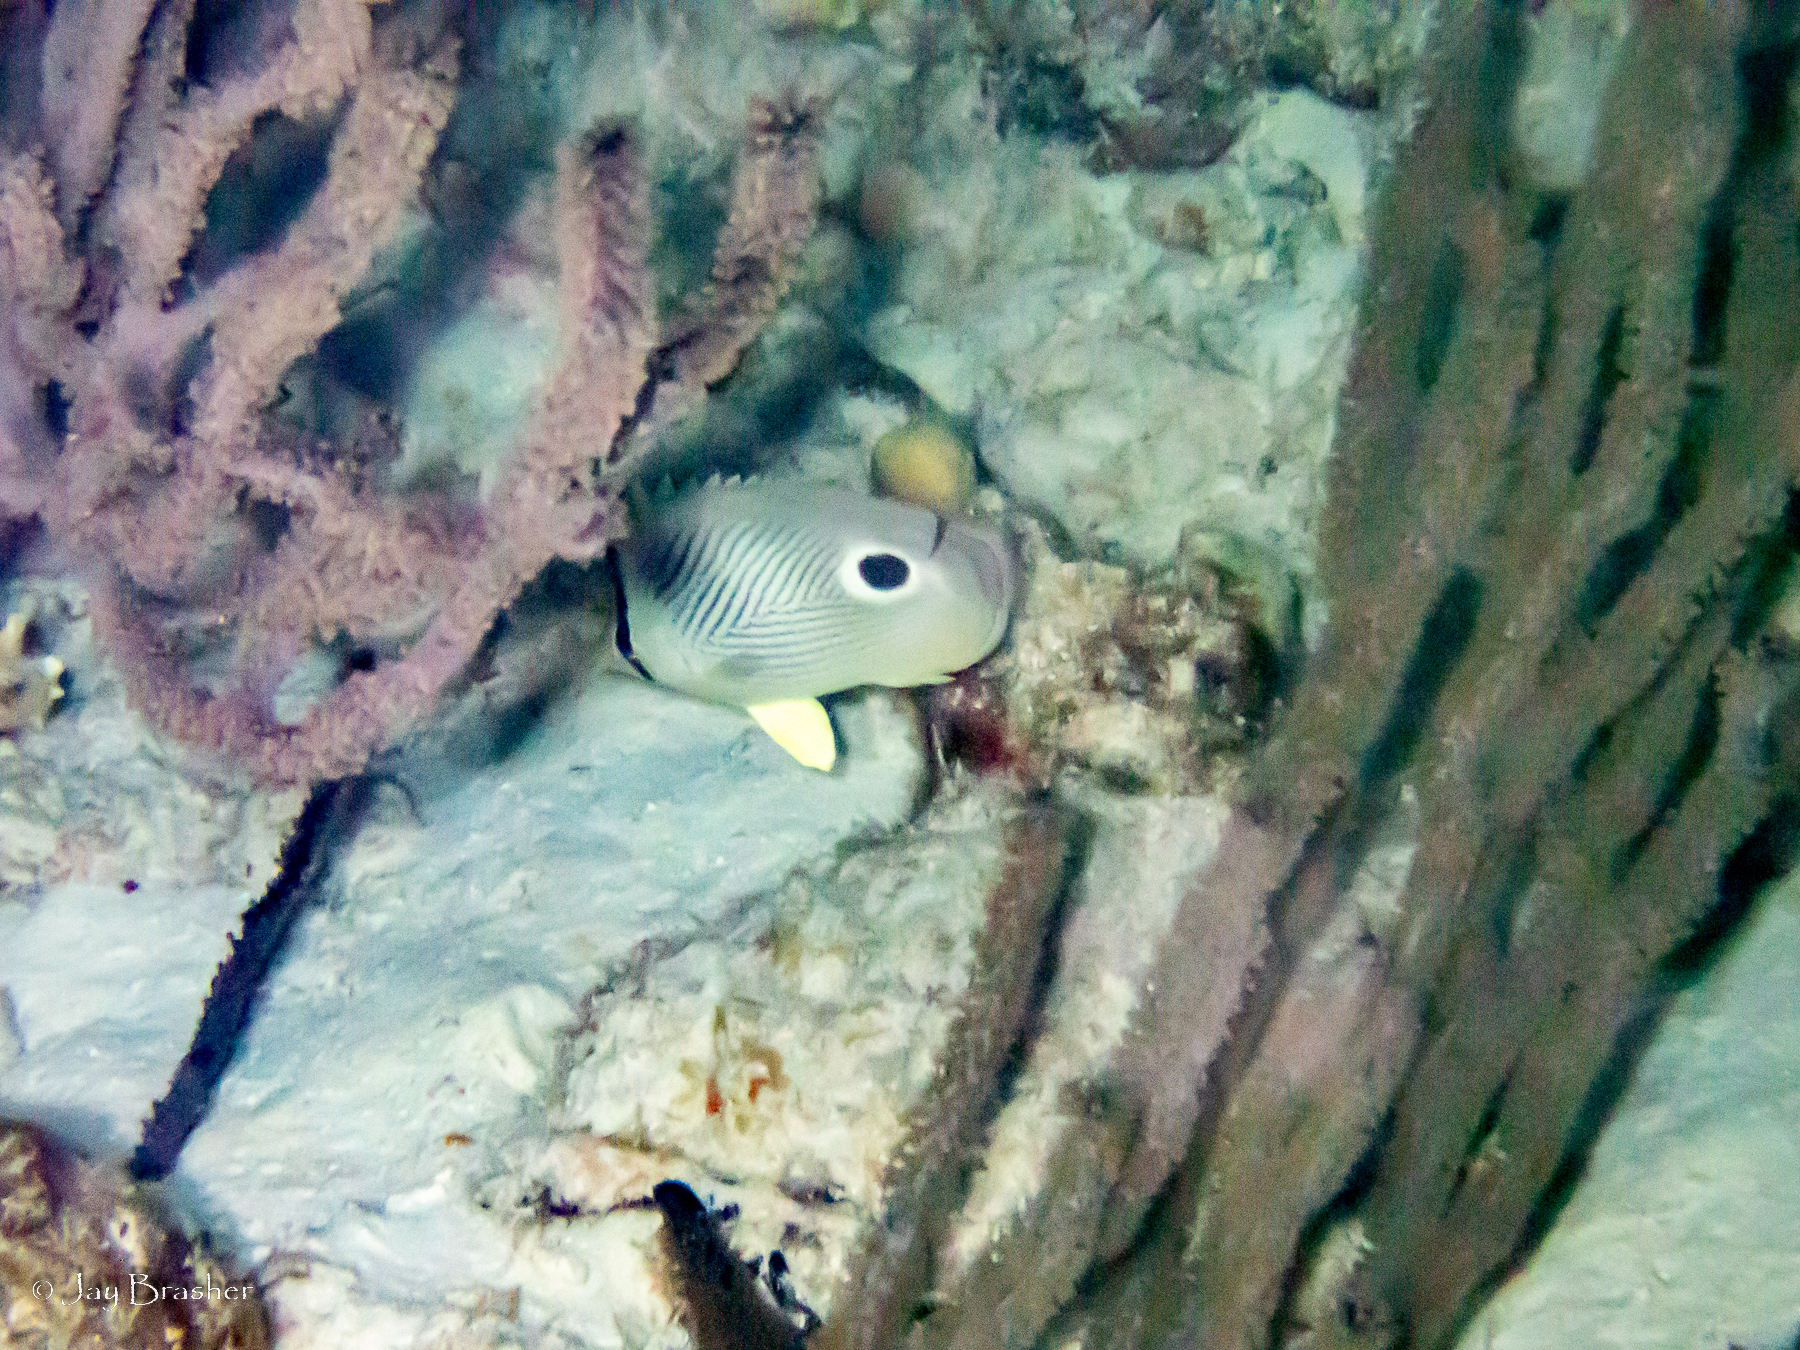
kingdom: Animalia
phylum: Chordata
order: Perciformes
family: Chaetodontidae
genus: Chaetodon
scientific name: Chaetodon capistratus
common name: Kete
